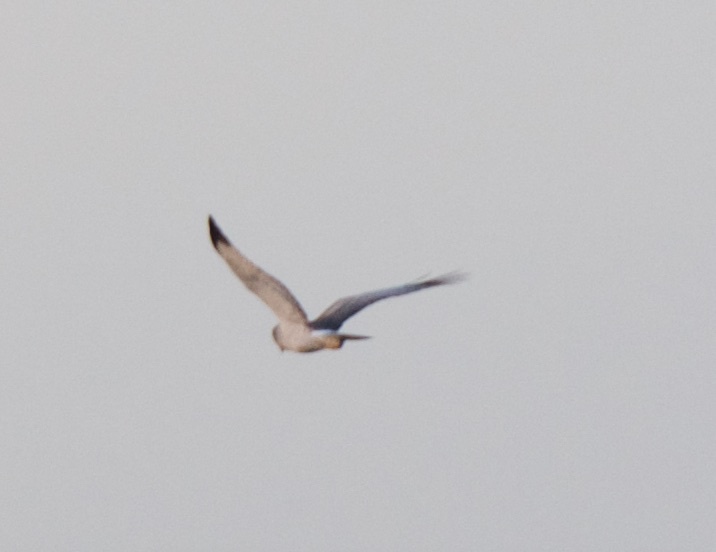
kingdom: Animalia
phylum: Chordata
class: Aves
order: Accipitriformes
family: Accipitridae
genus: Circus
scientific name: Circus cyaneus
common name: Hen harrier
